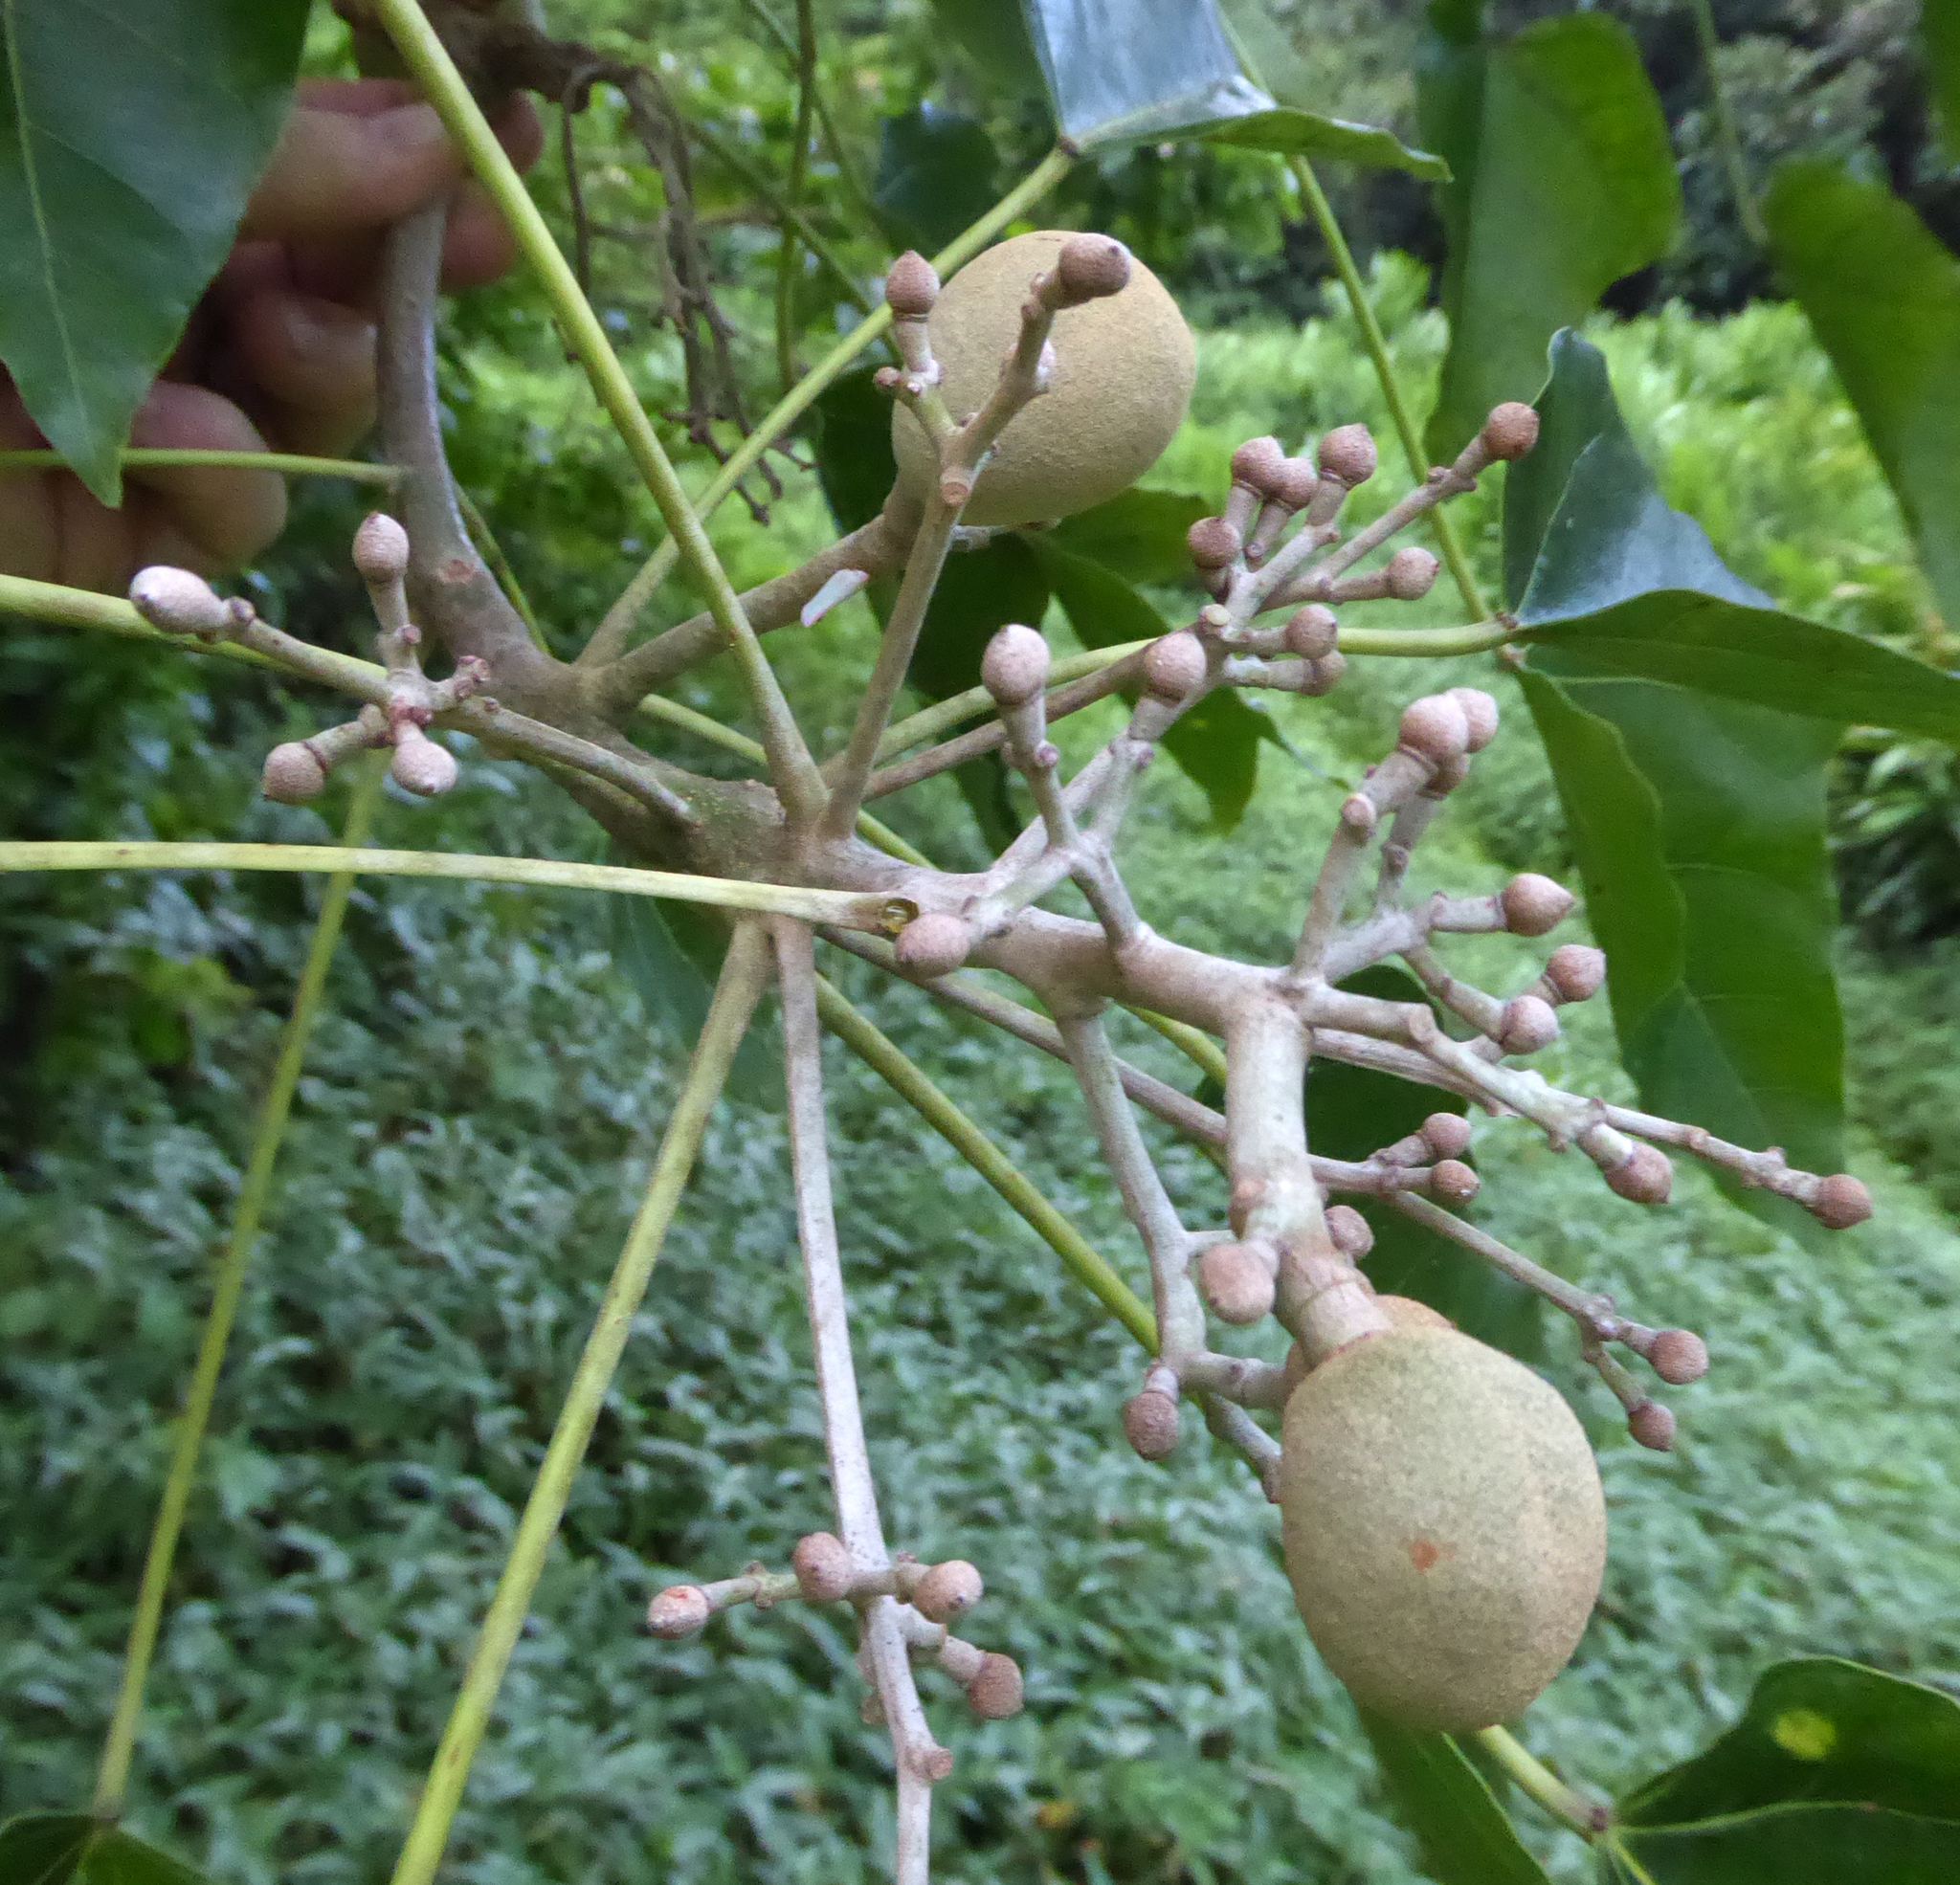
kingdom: Plantae
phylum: Tracheophyta
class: Magnoliopsida
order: Malpighiales
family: Euphorbiaceae
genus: Aleurites
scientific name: Aleurites moluccanus
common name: Candlenut tree
